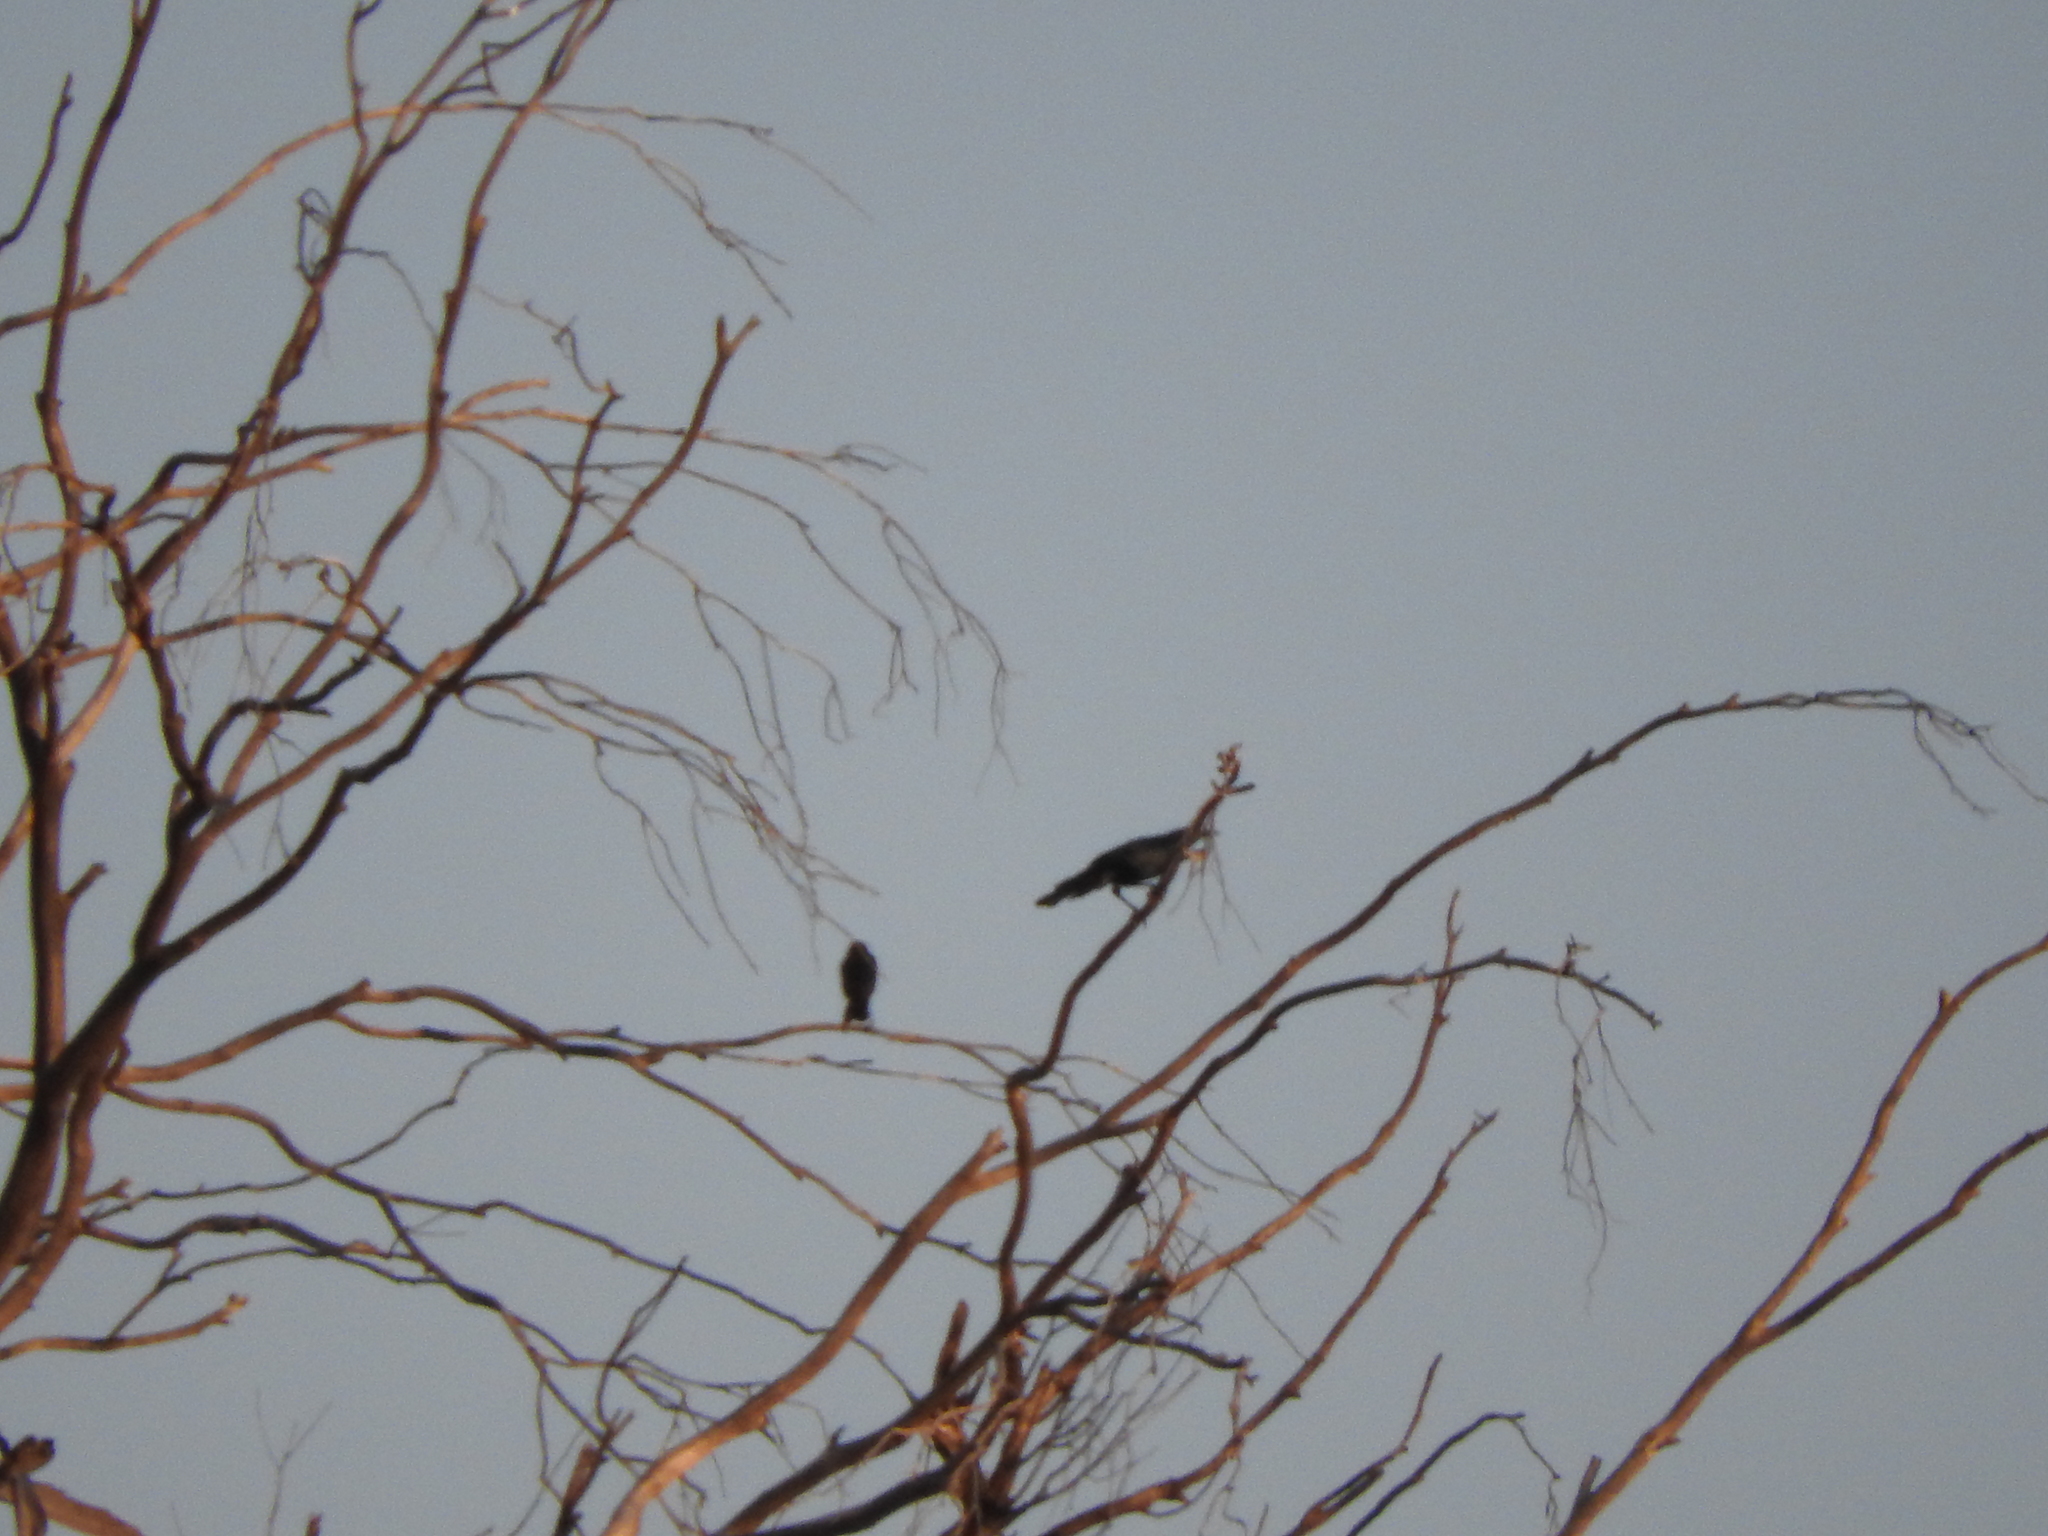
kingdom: Animalia
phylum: Chordata
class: Aves
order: Passeriformes
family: Icteridae
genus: Quiscalus
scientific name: Quiscalus mexicanus
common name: Great-tailed grackle
